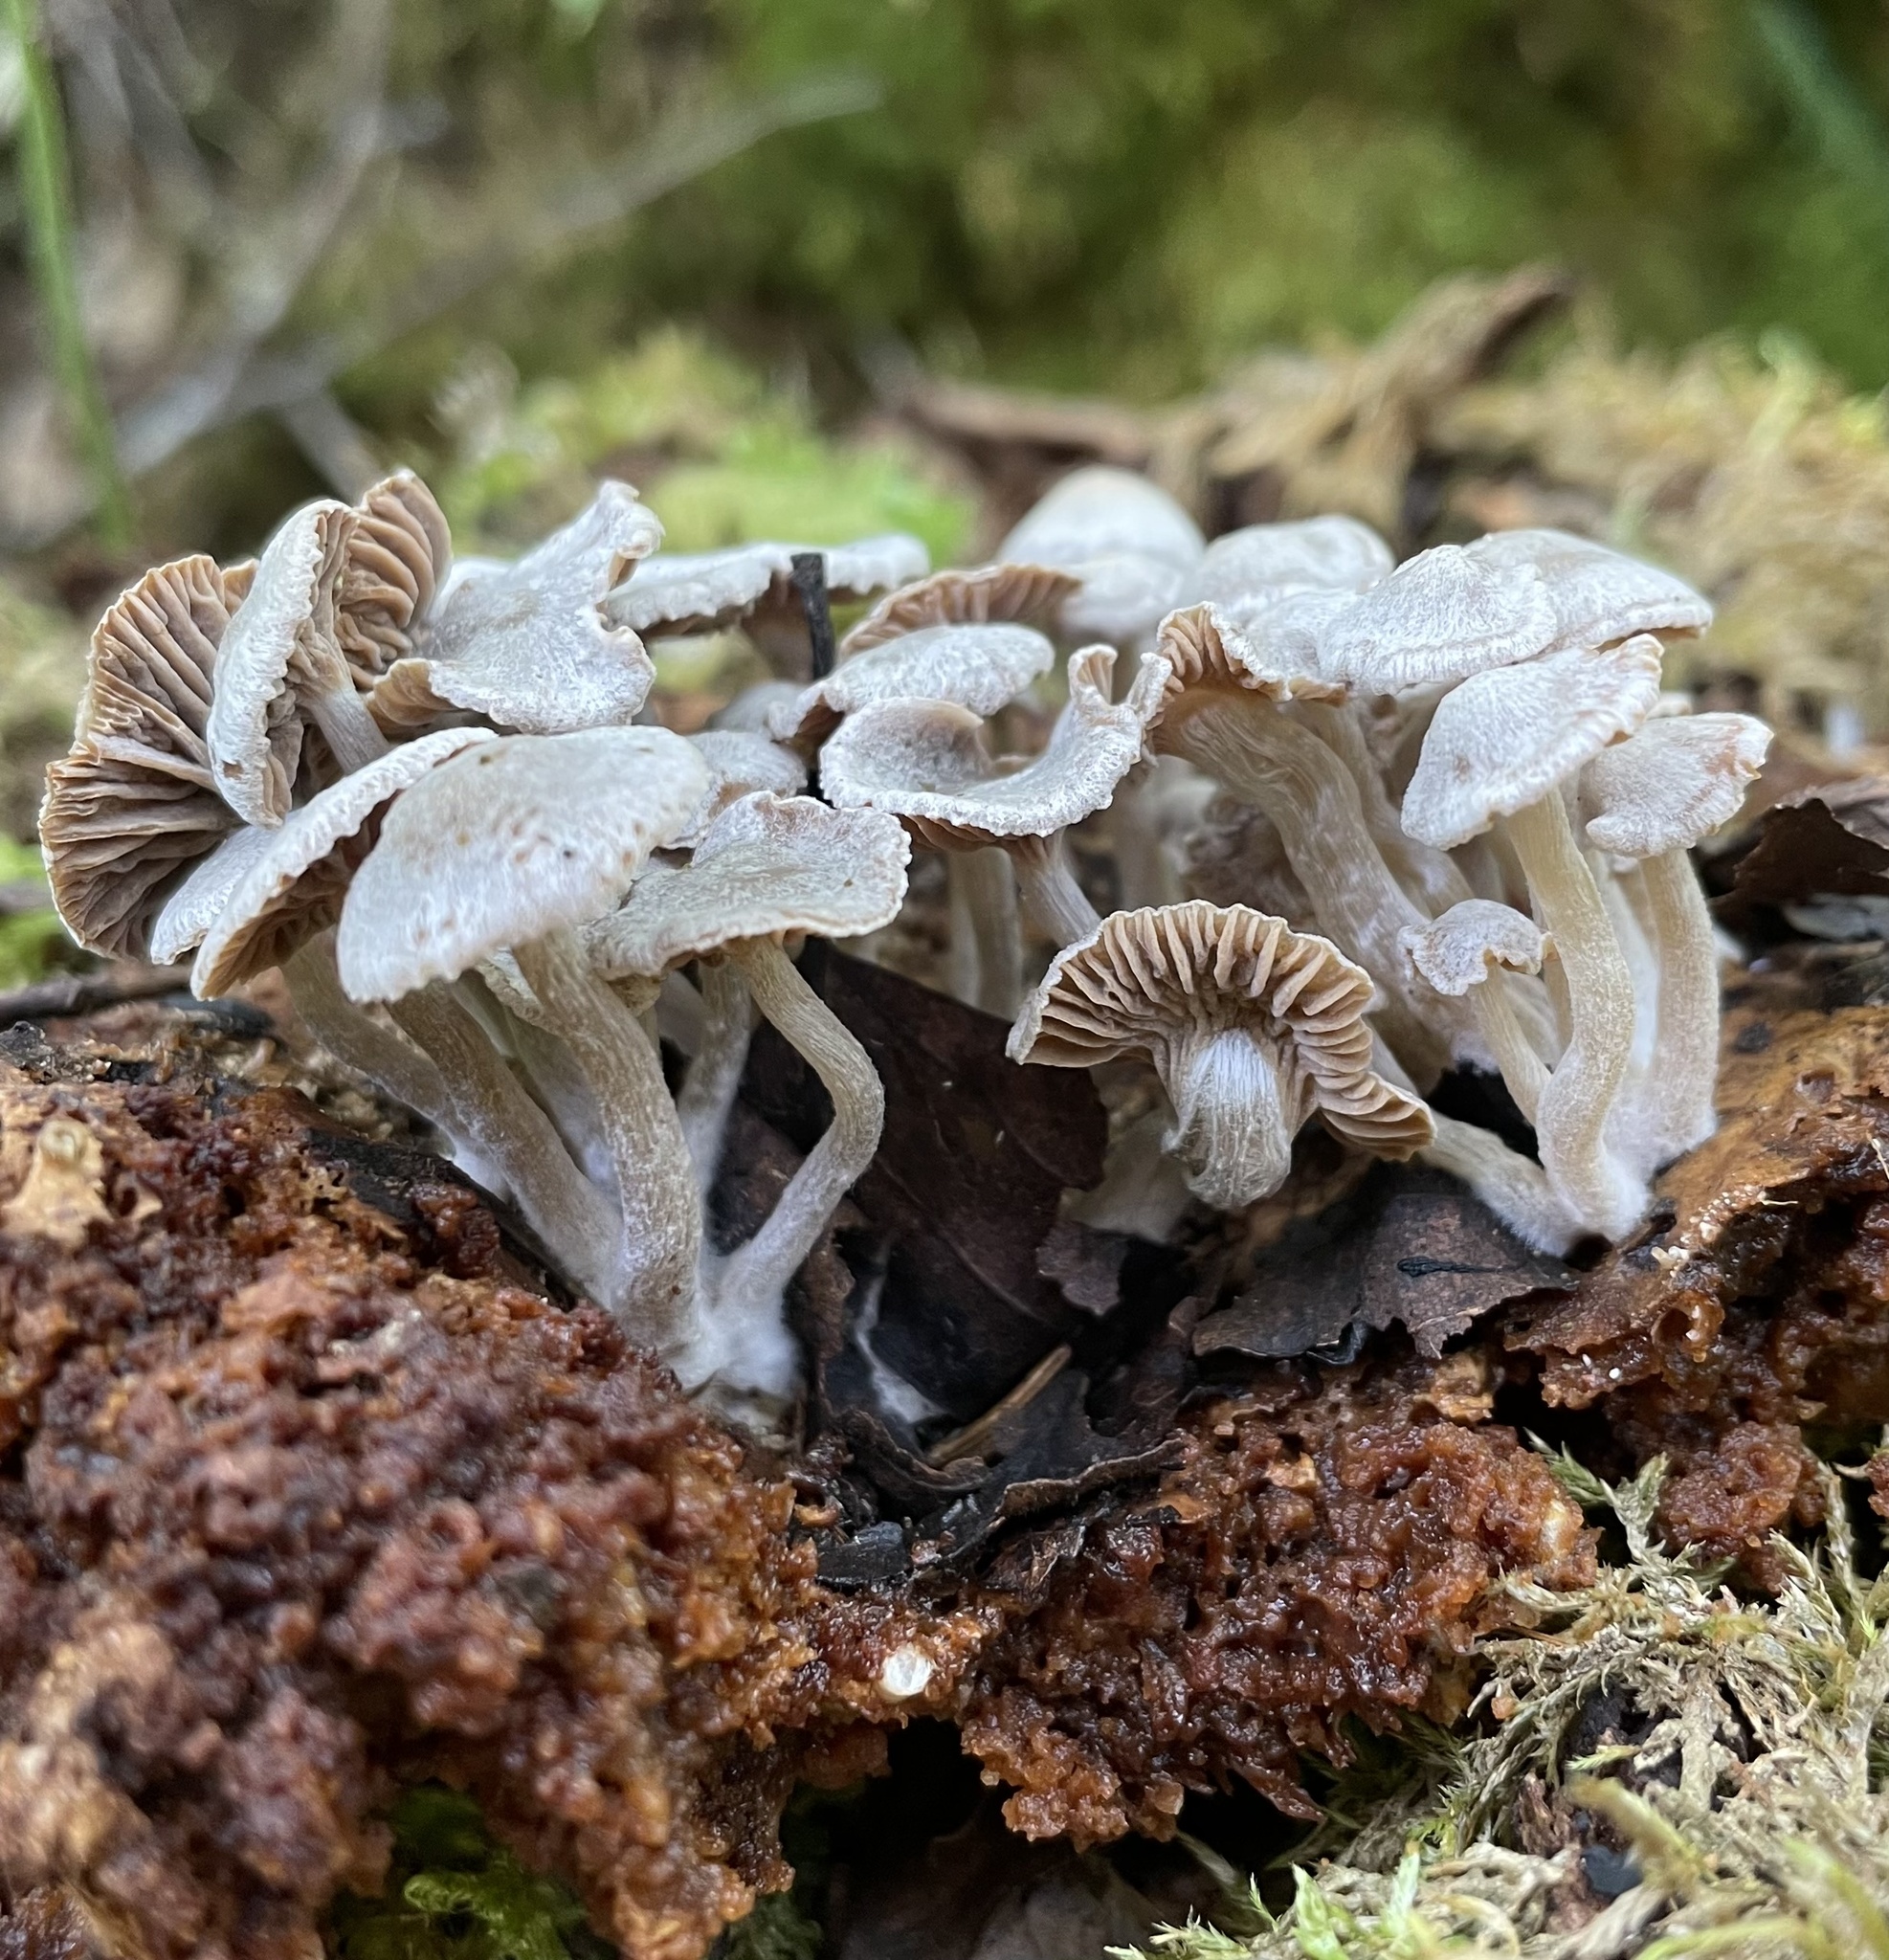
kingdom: Fungi
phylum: Basidiomycota
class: Agaricomycetes
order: Agaricales
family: Lyophyllaceae
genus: Asterophora
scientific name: Asterophora parasitica
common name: Silky piggyback
